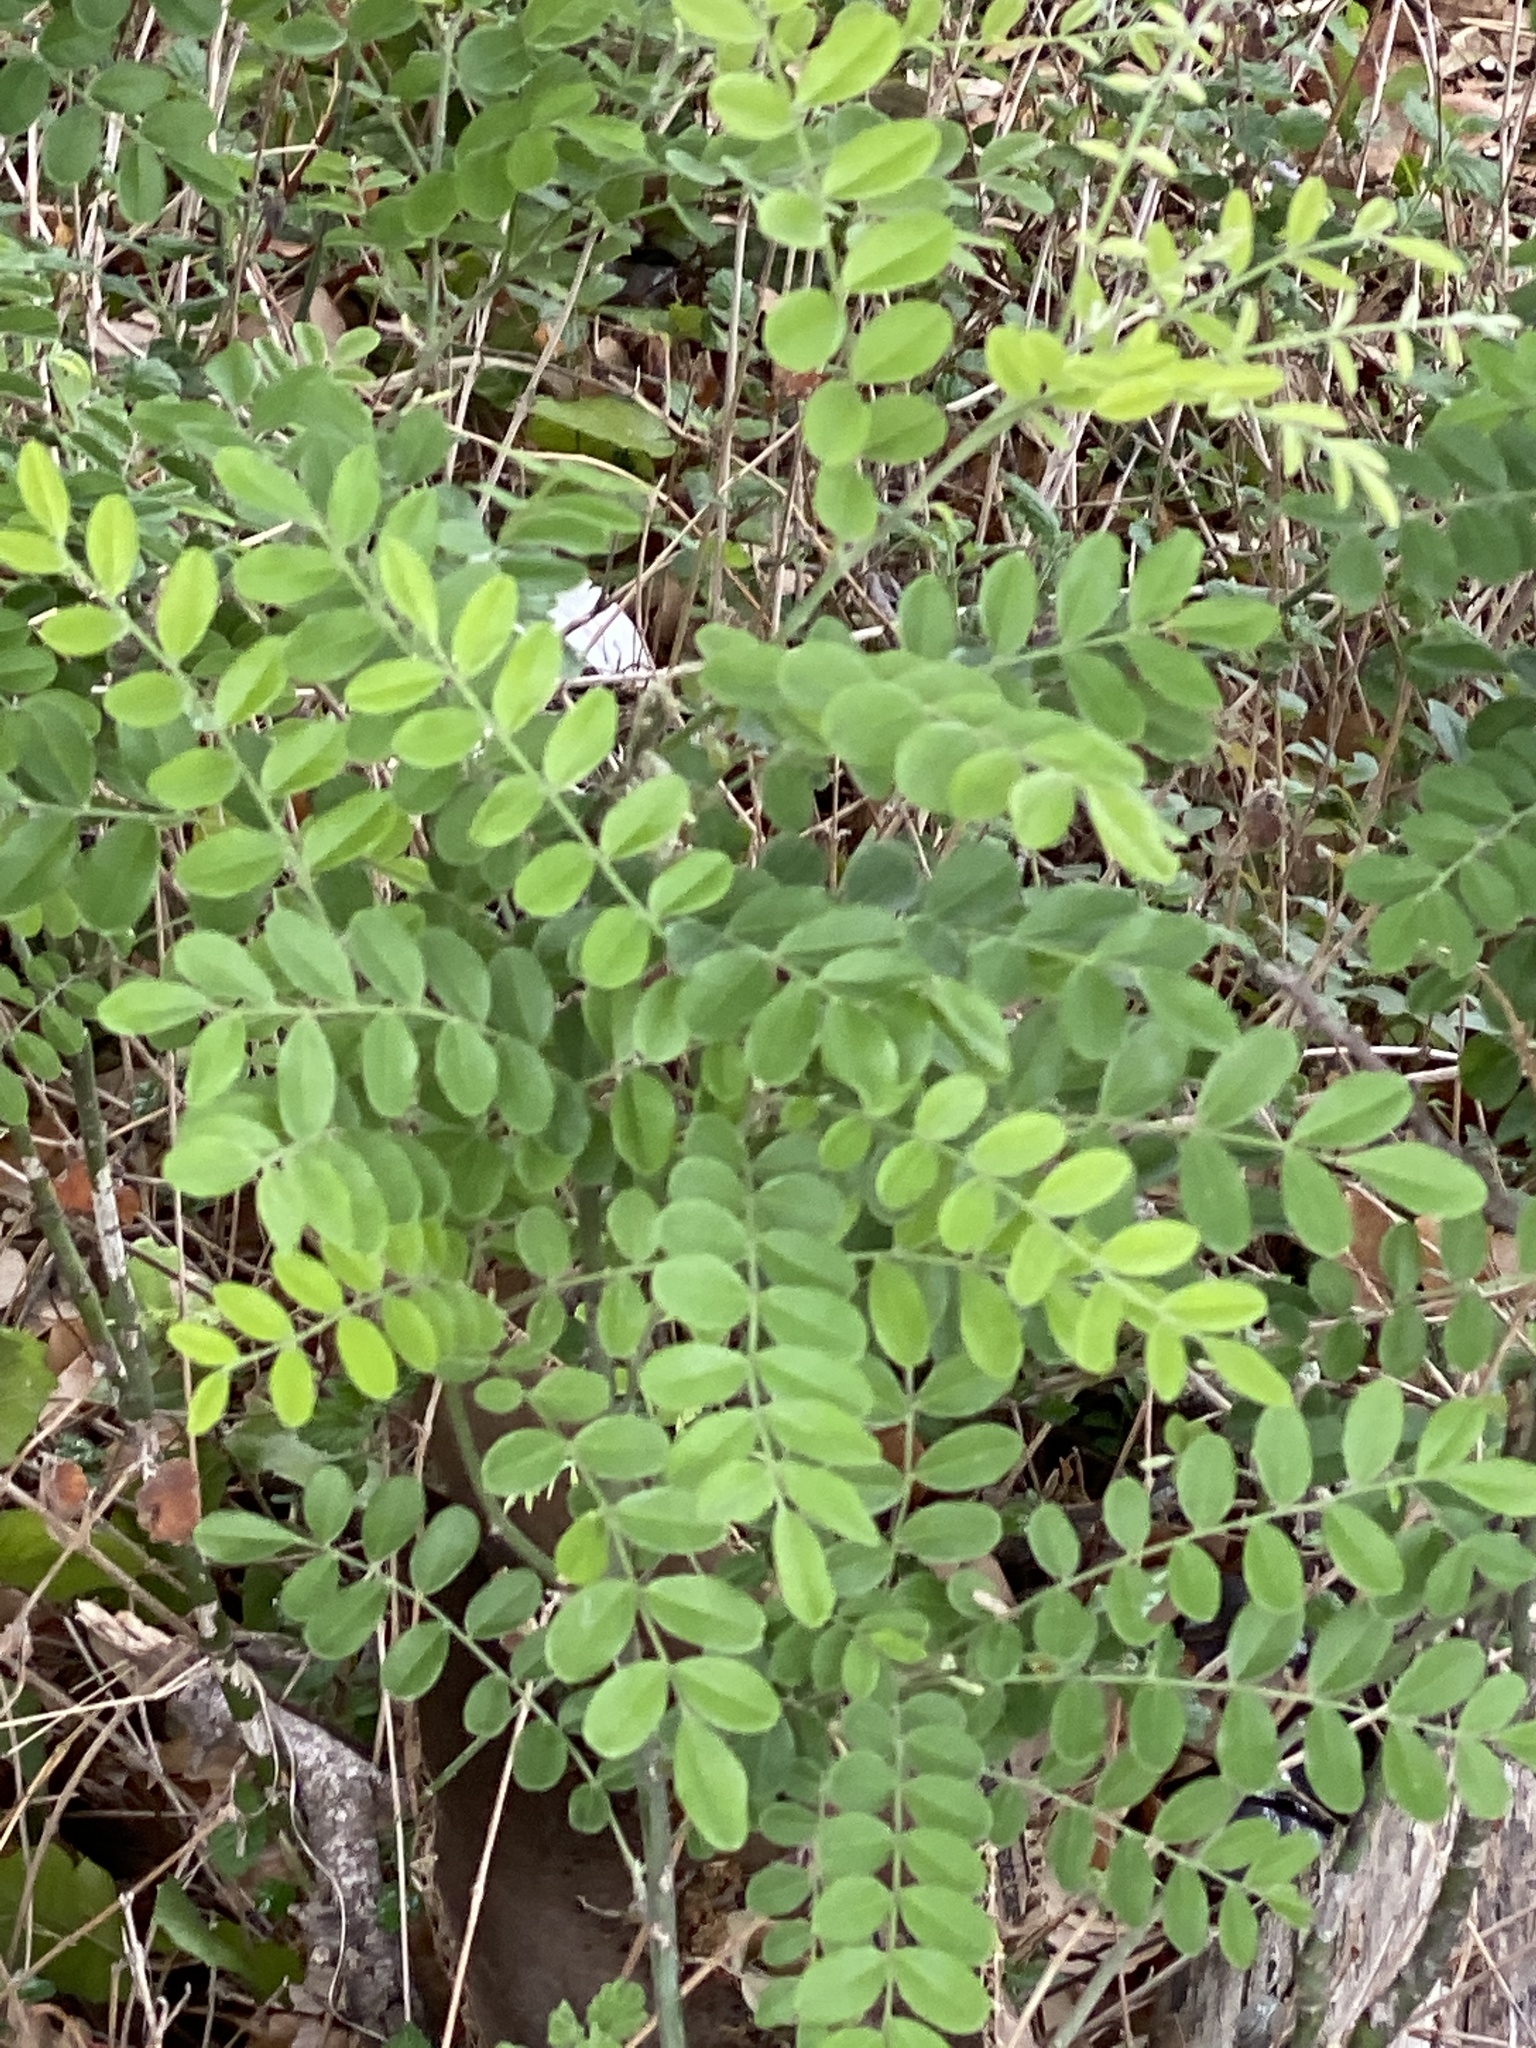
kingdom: Plantae
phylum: Tracheophyta
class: Magnoliopsida
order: Fabales
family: Fabaceae
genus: Styphnolobium
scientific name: Styphnolobium affine
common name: Texas sophora
